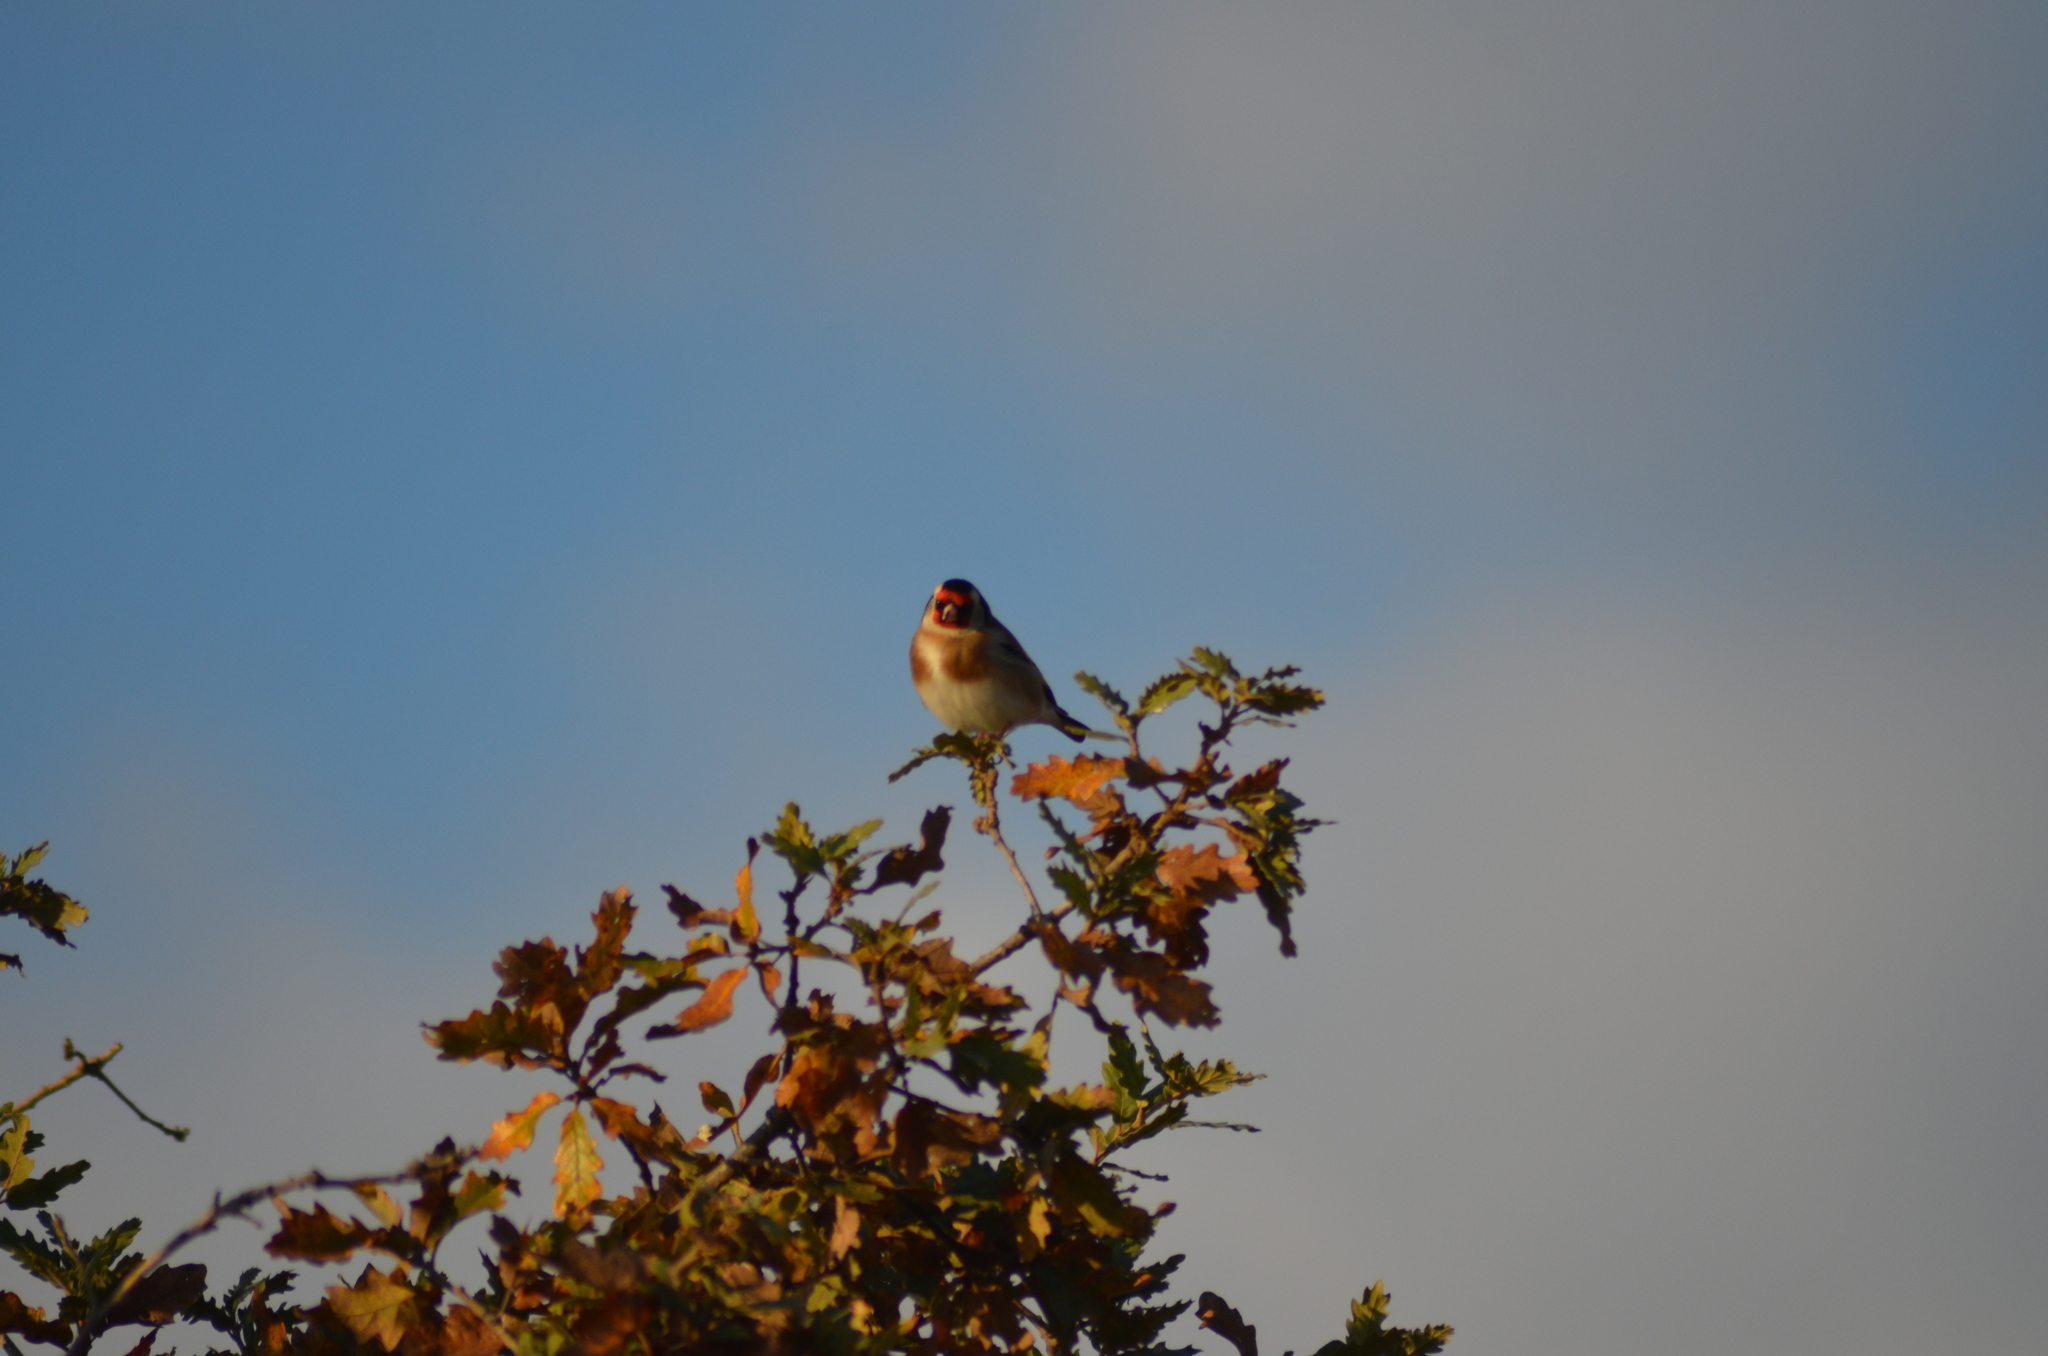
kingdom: Animalia
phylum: Chordata
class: Aves
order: Passeriformes
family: Fringillidae
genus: Carduelis
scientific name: Carduelis carduelis
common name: European goldfinch
